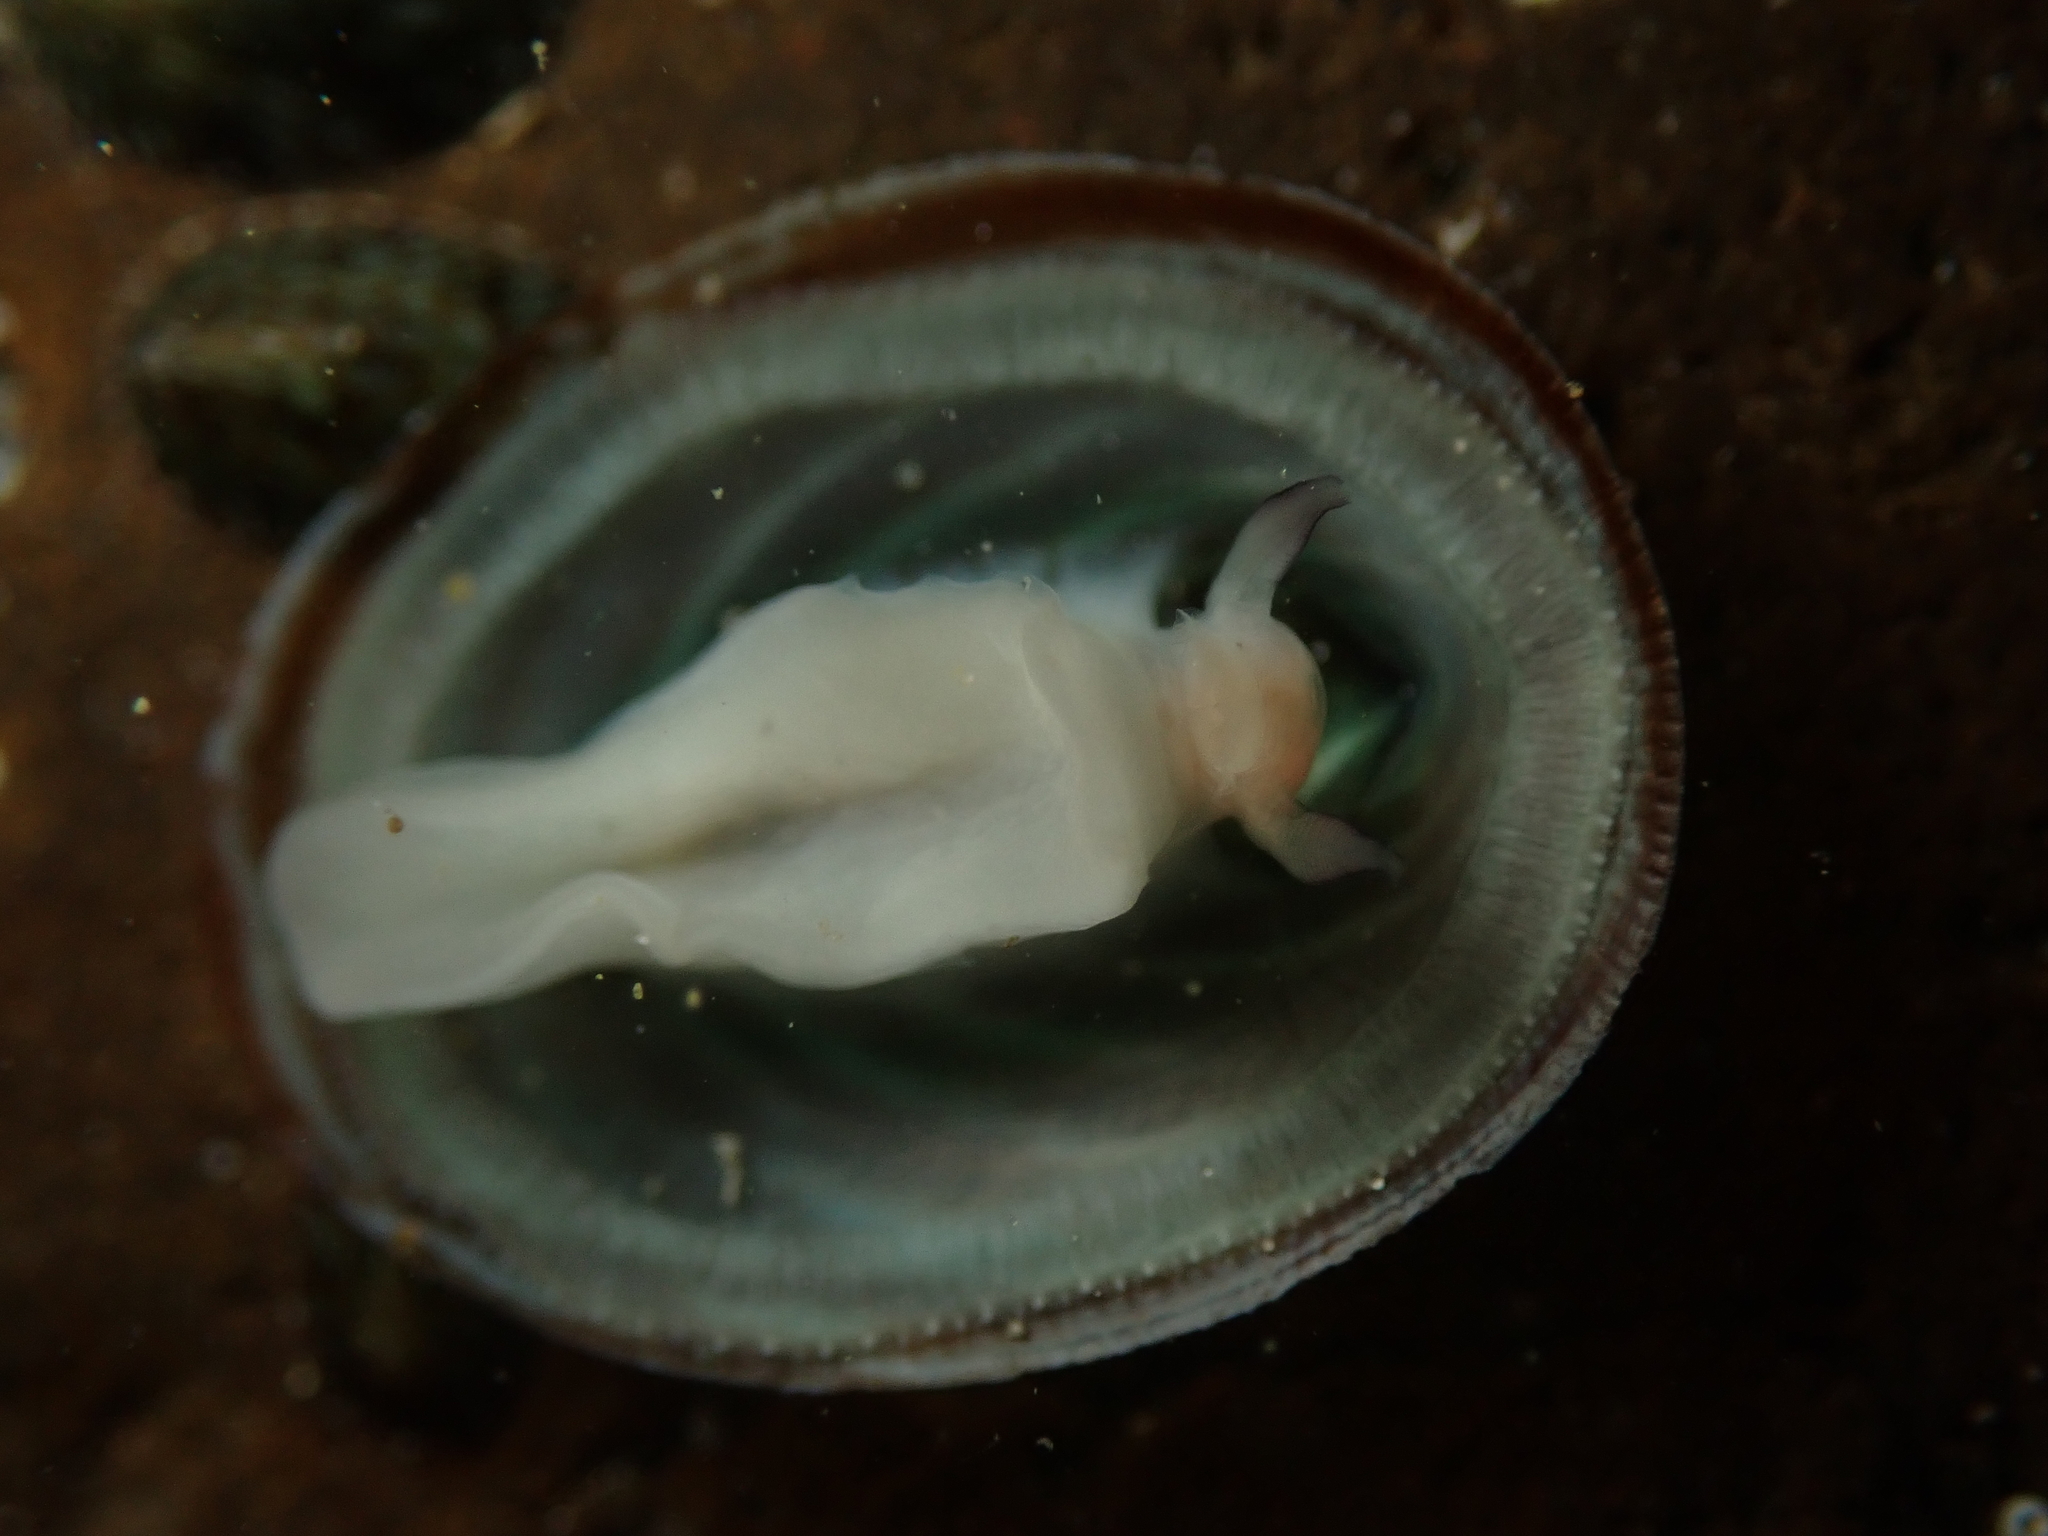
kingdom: Animalia
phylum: Mollusca
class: Gastropoda
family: Lottiidae
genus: Atalacmea
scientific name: Atalacmea fragilis
